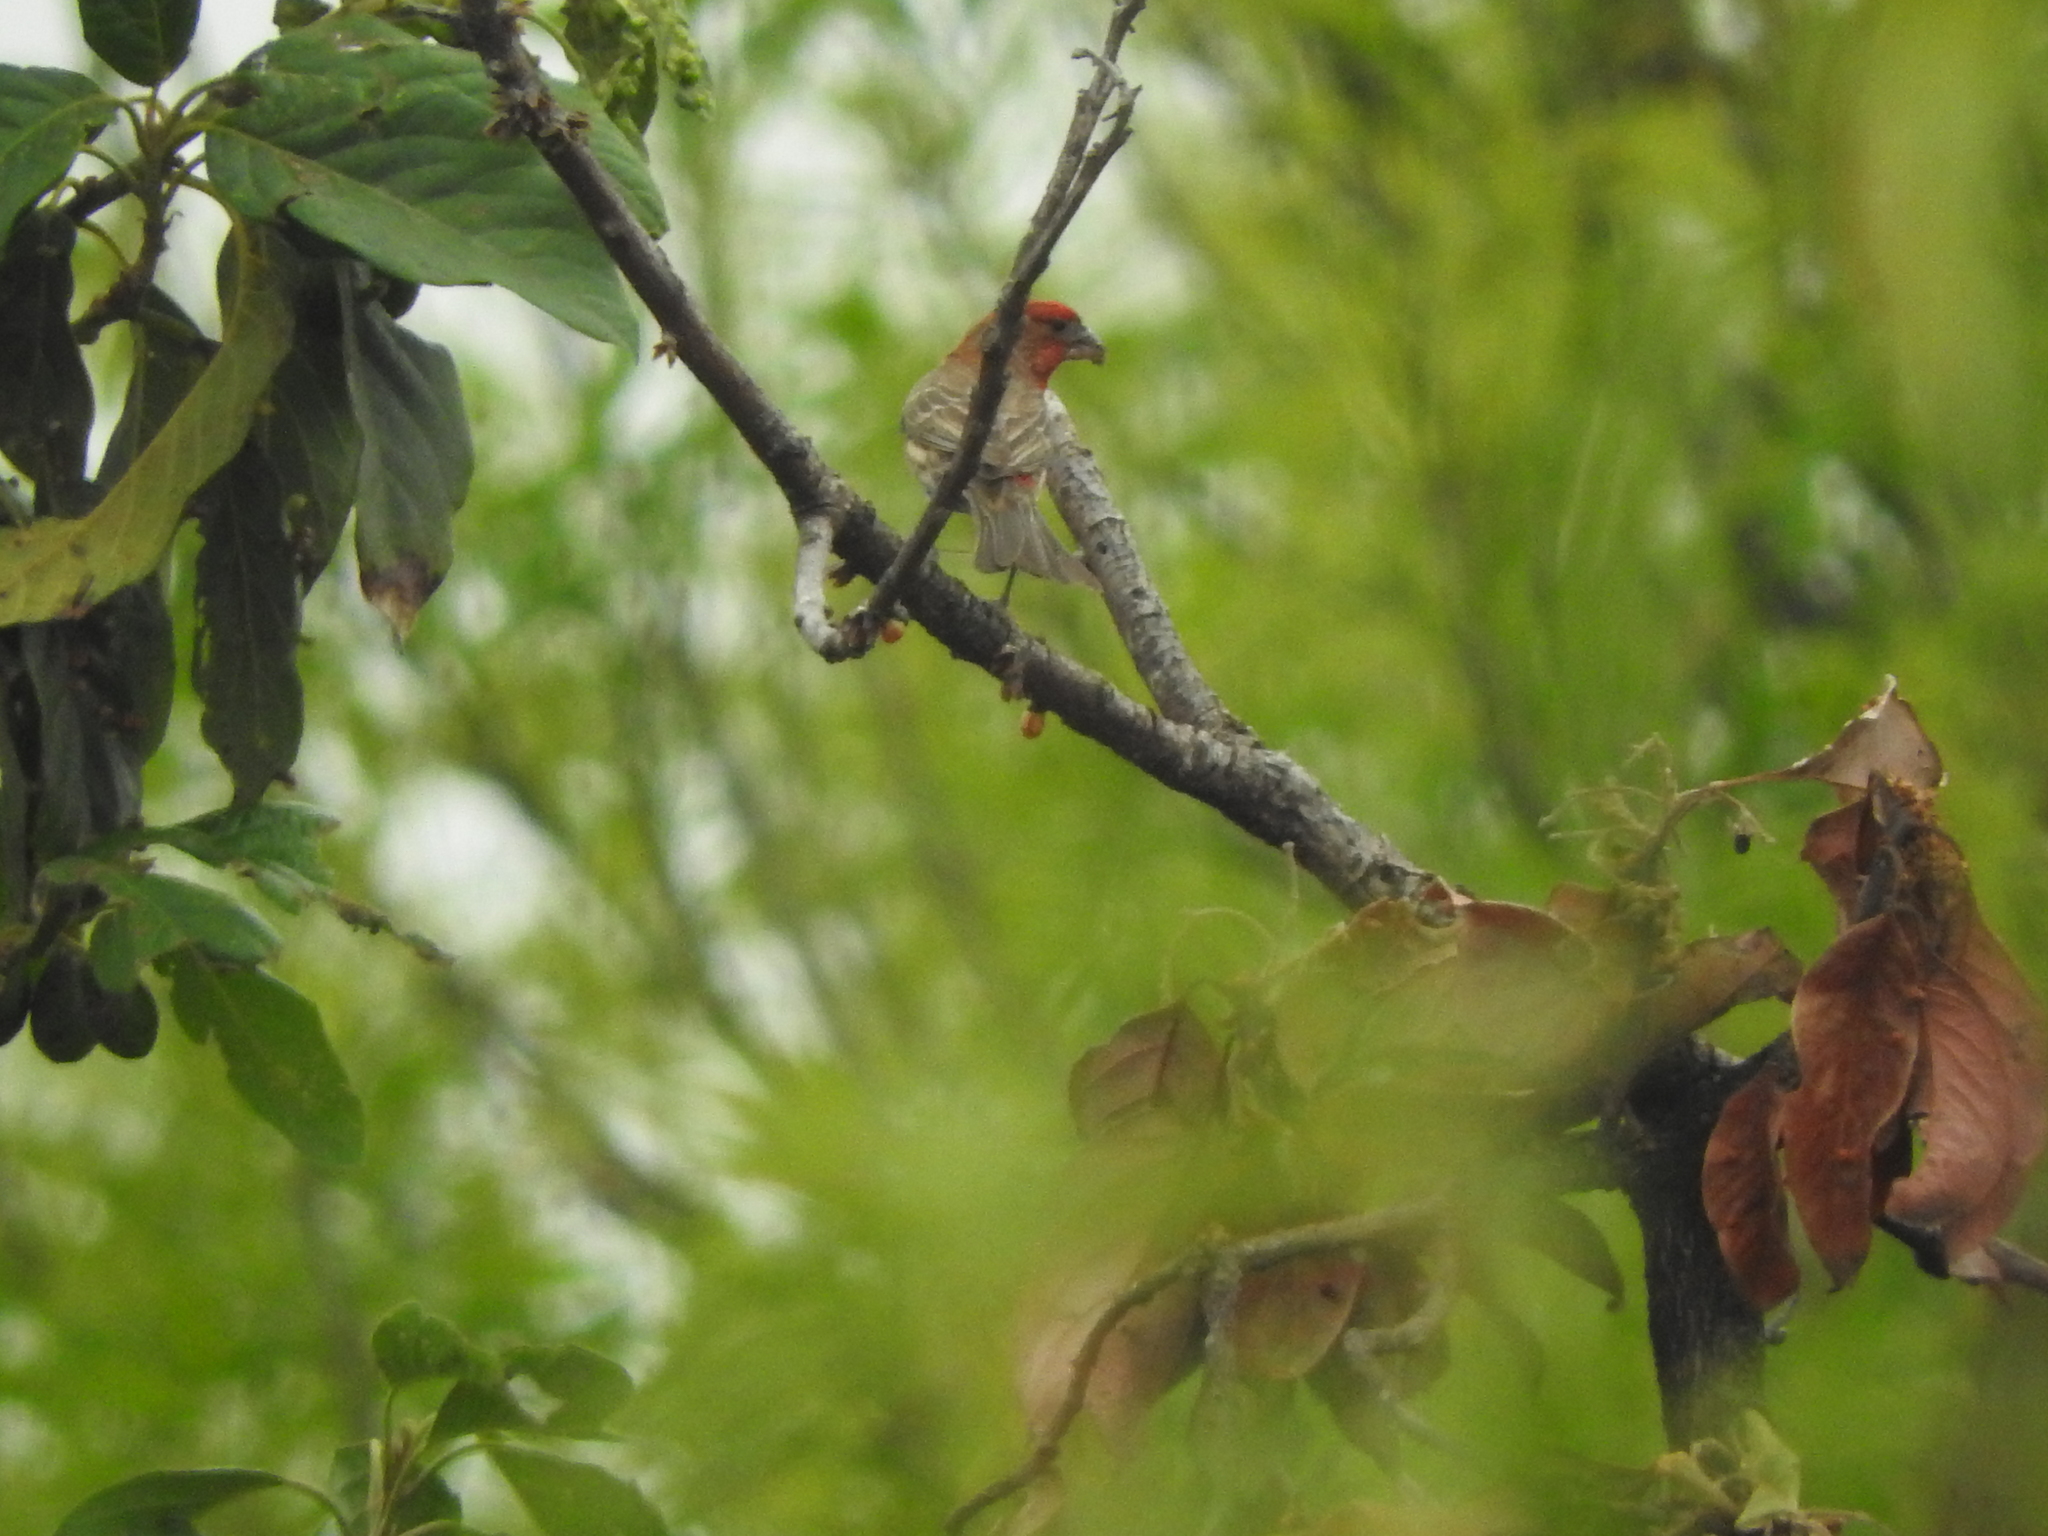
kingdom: Animalia
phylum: Chordata
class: Aves
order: Passeriformes
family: Fringillidae
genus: Haemorhous
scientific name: Haemorhous mexicanus
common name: House finch
